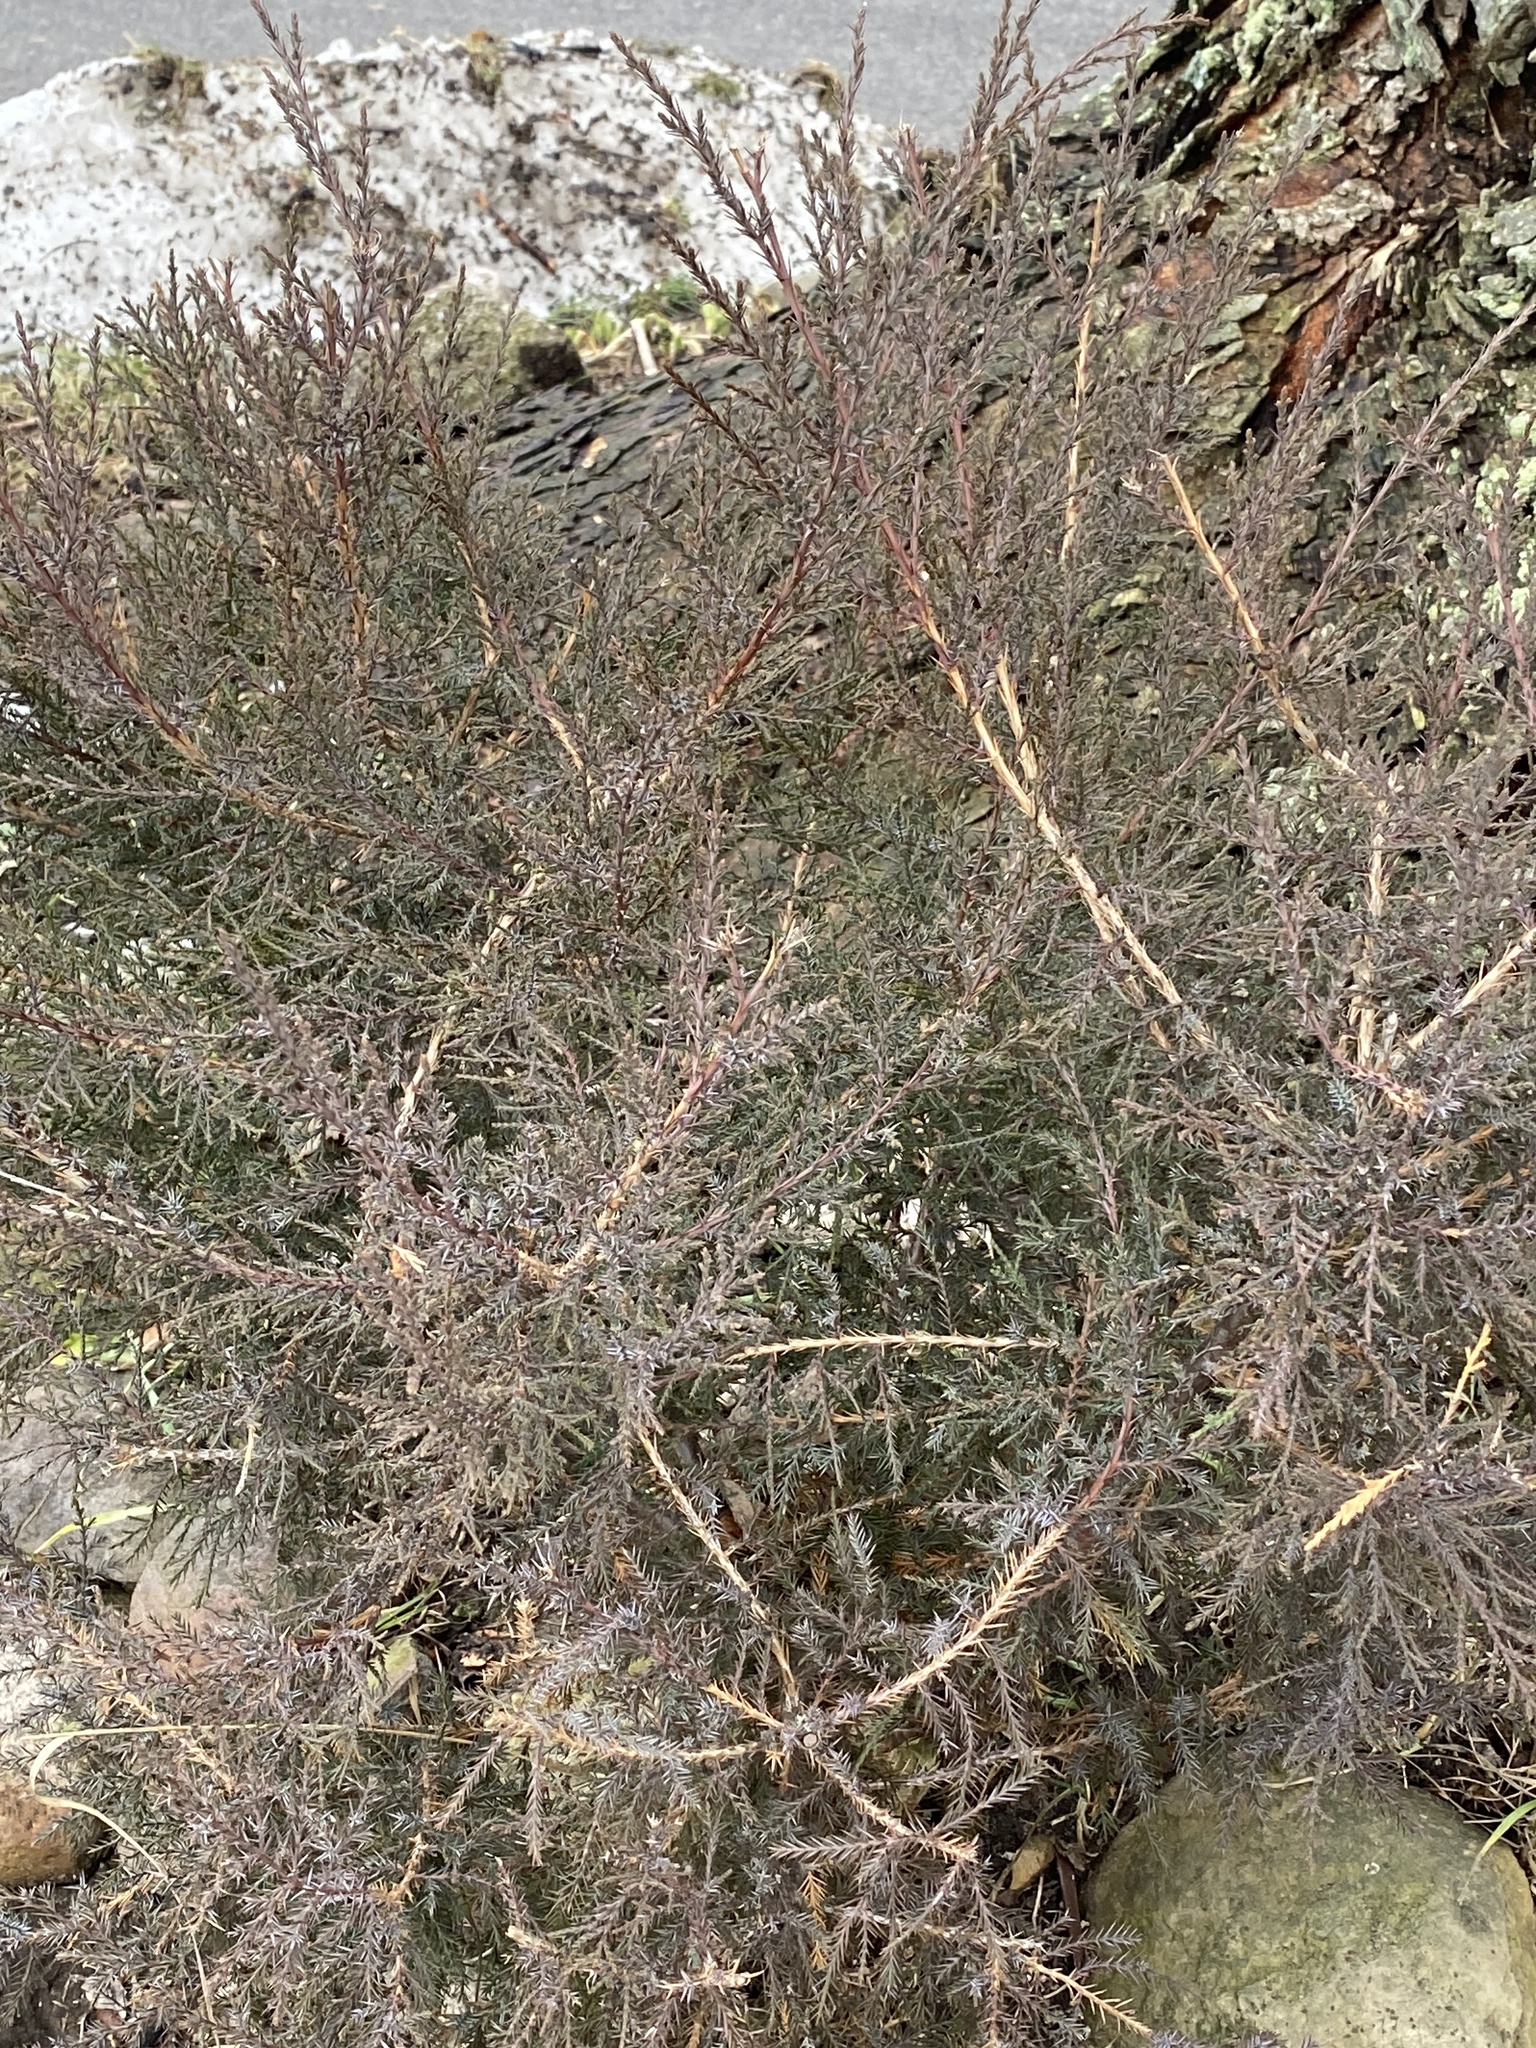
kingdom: Plantae
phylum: Tracheophyta
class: Pinopsida
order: Pinales
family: Cupressaceae
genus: Juniperus
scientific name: Juniperus virginiana
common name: Red juniper
